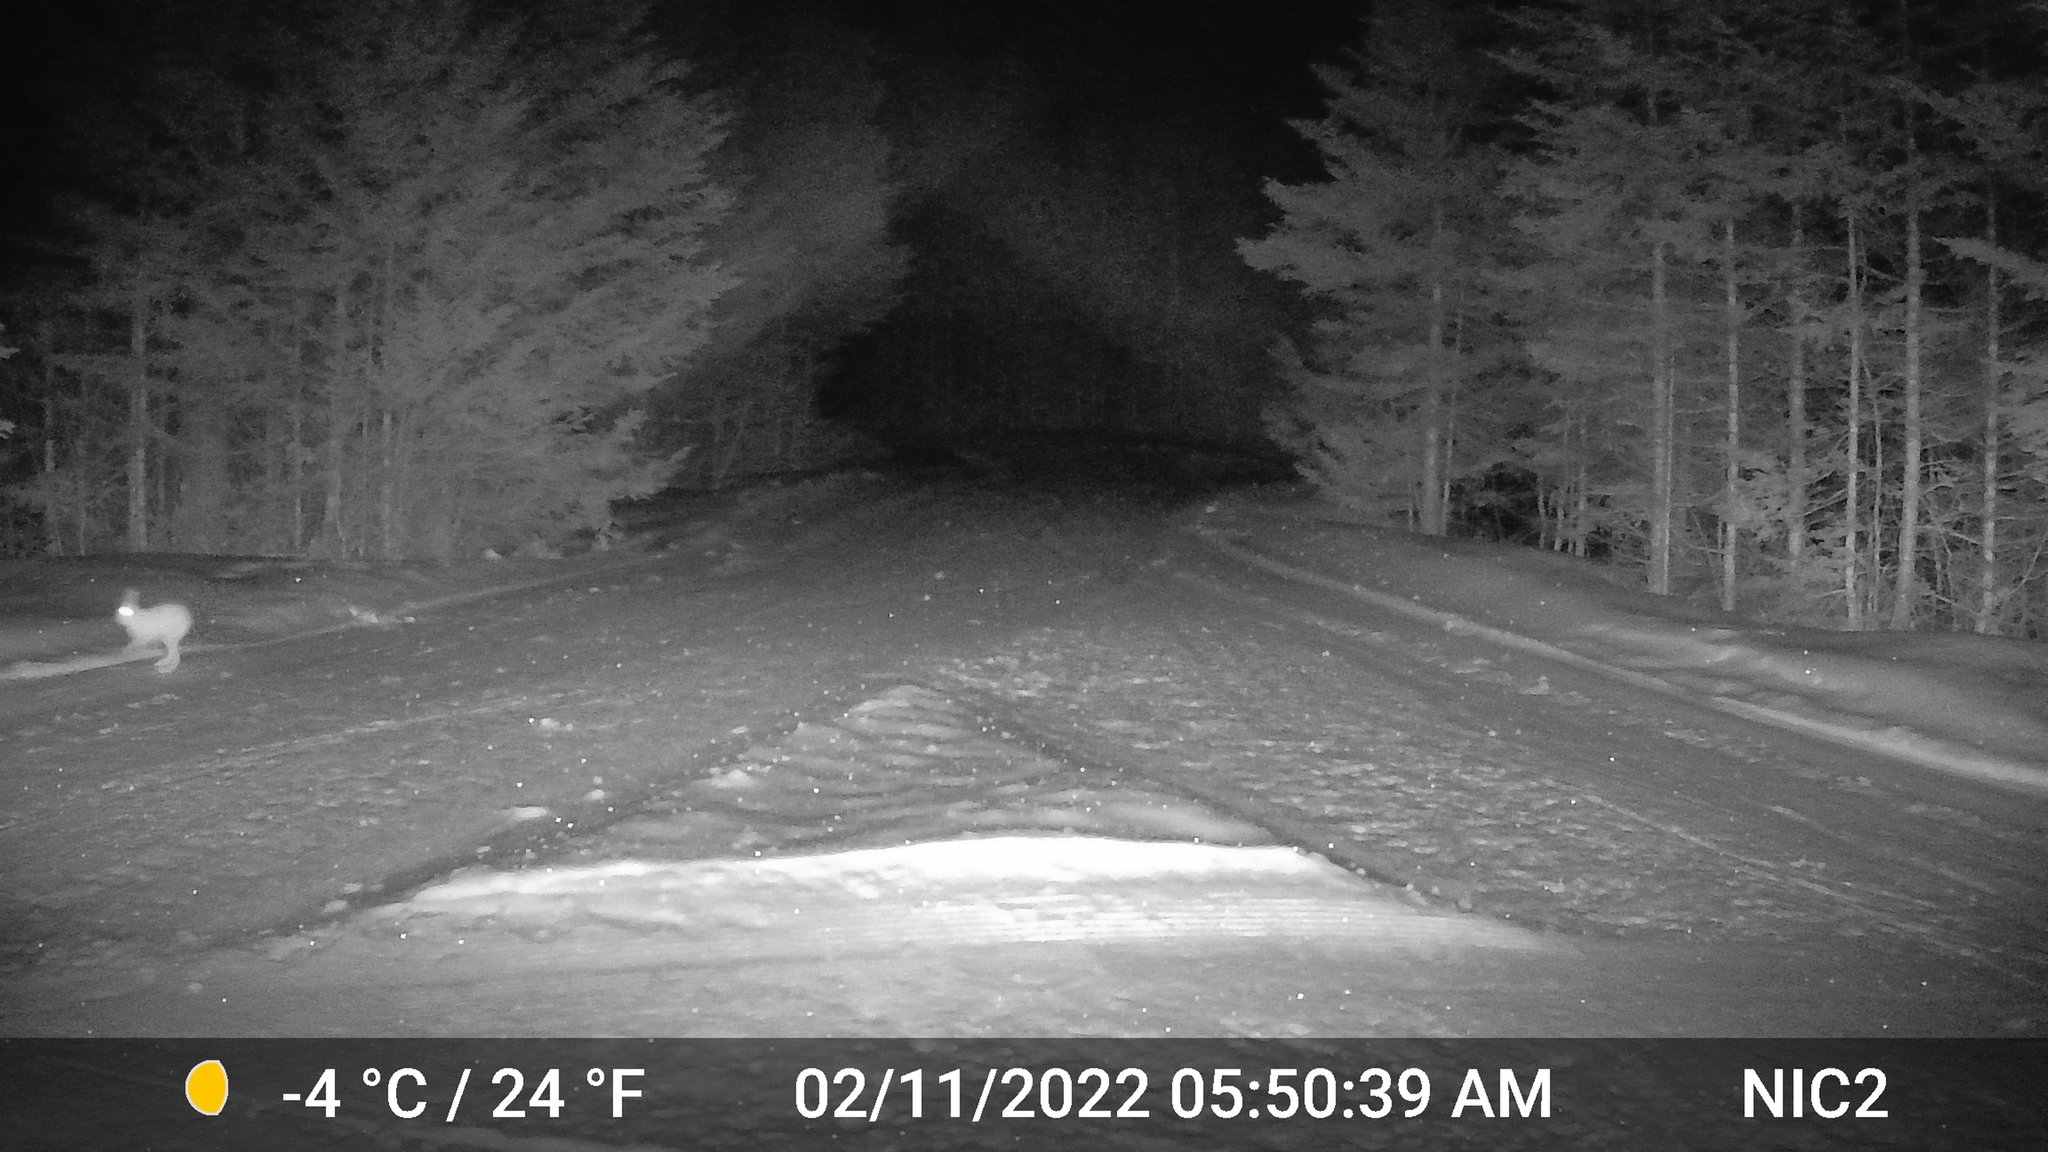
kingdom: Animalia
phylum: Chordata
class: Mammalia
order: Lagomorpha
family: Leporidae
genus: Lepus
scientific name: Lepus americanus
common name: Snowshoe hare
